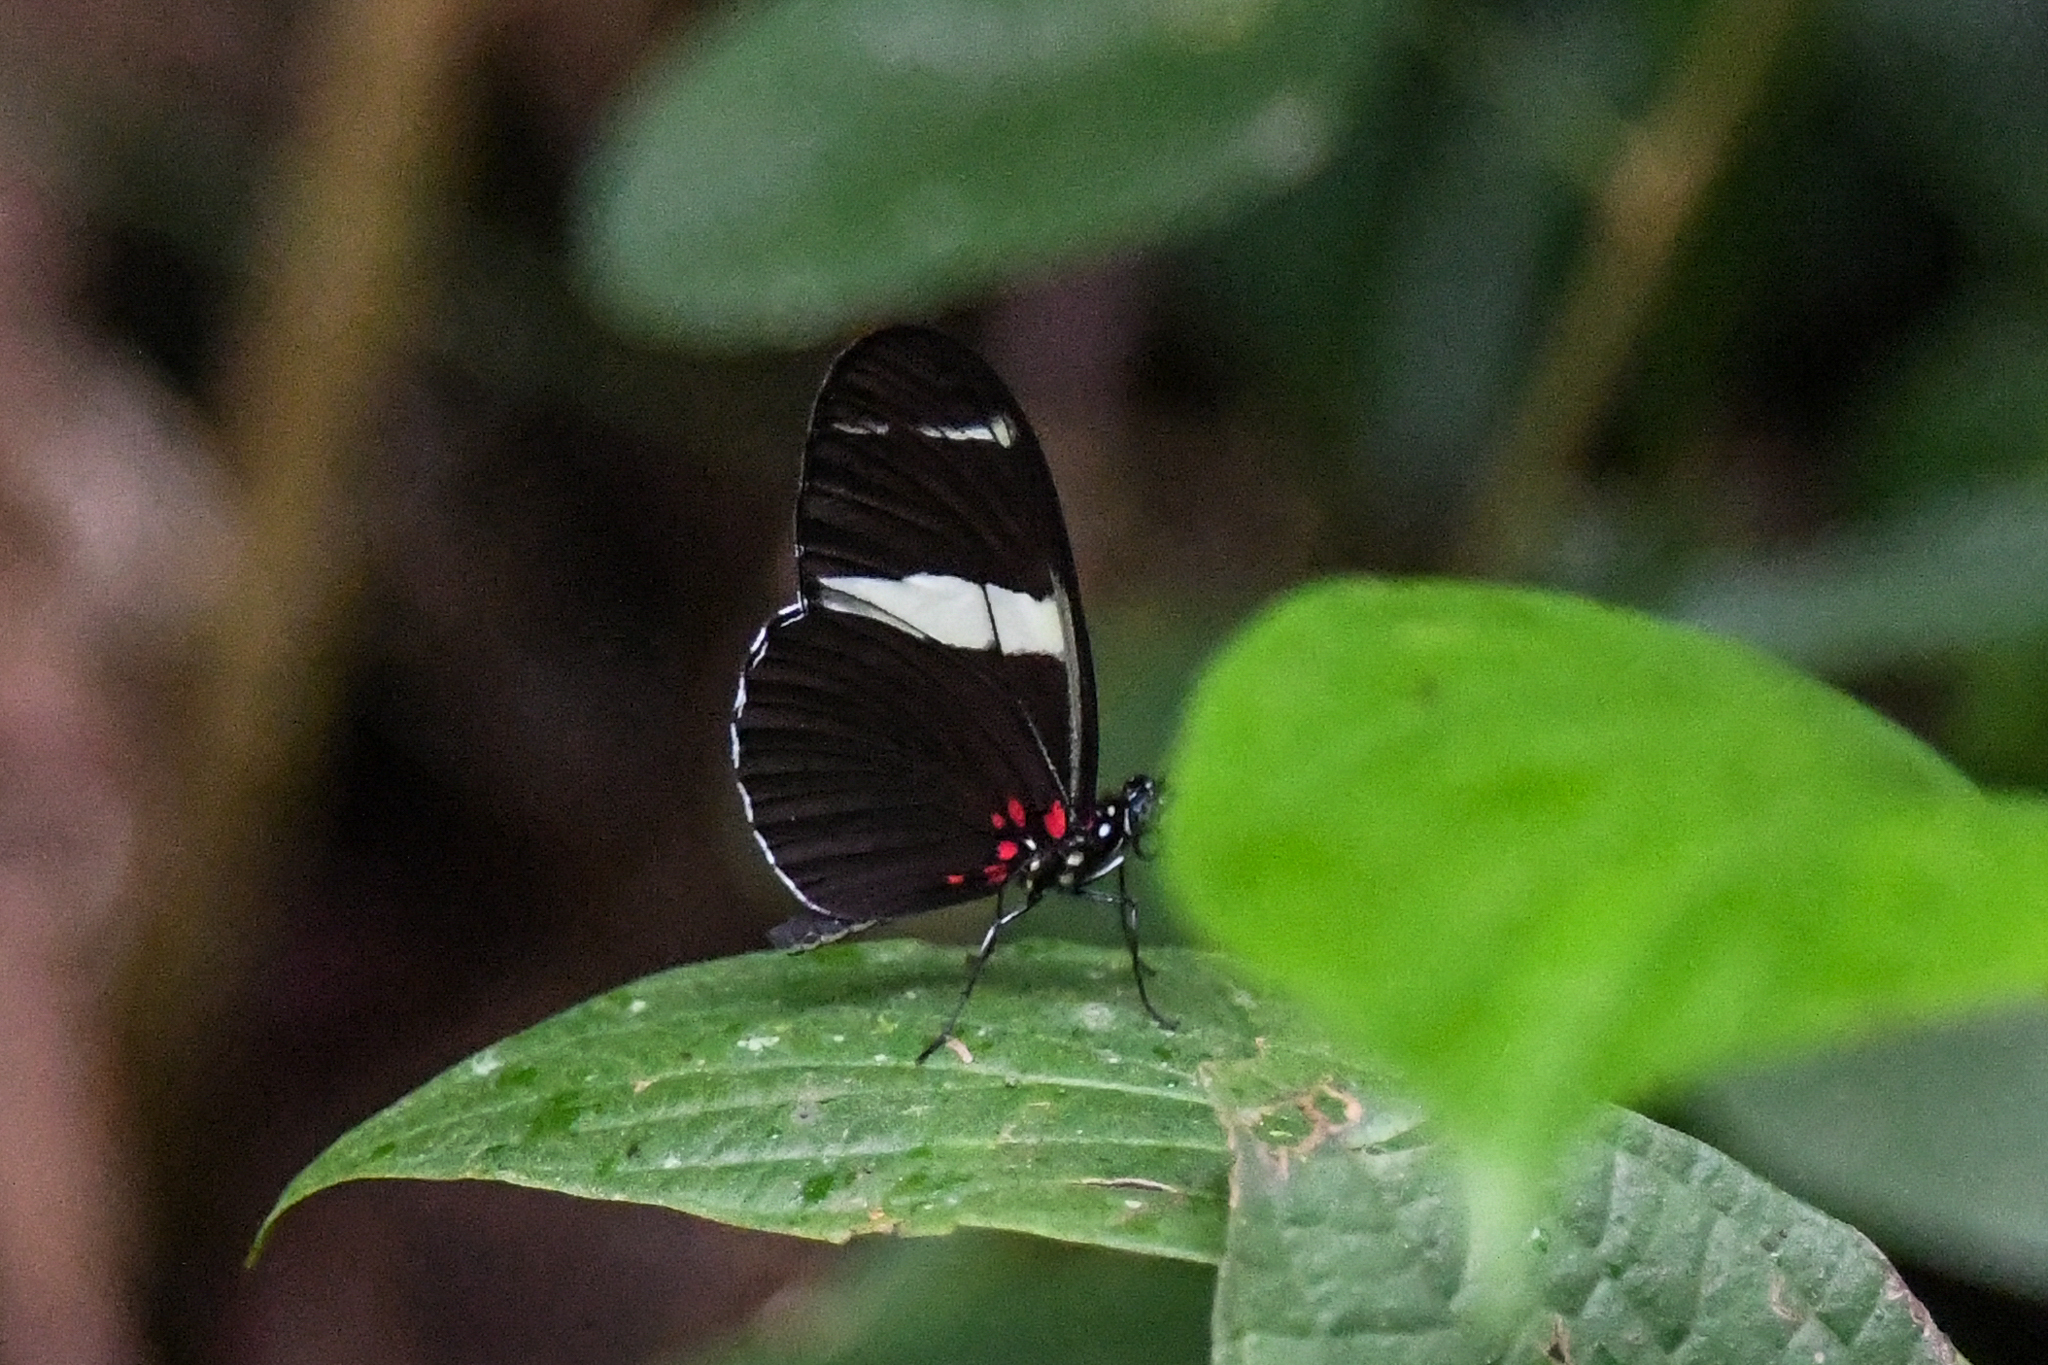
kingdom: Animalia
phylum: Arthropoda
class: Insecta
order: Lepidoptera
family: Nymphalidae
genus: Heliconius
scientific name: Heliconius sara
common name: Sara longwing
